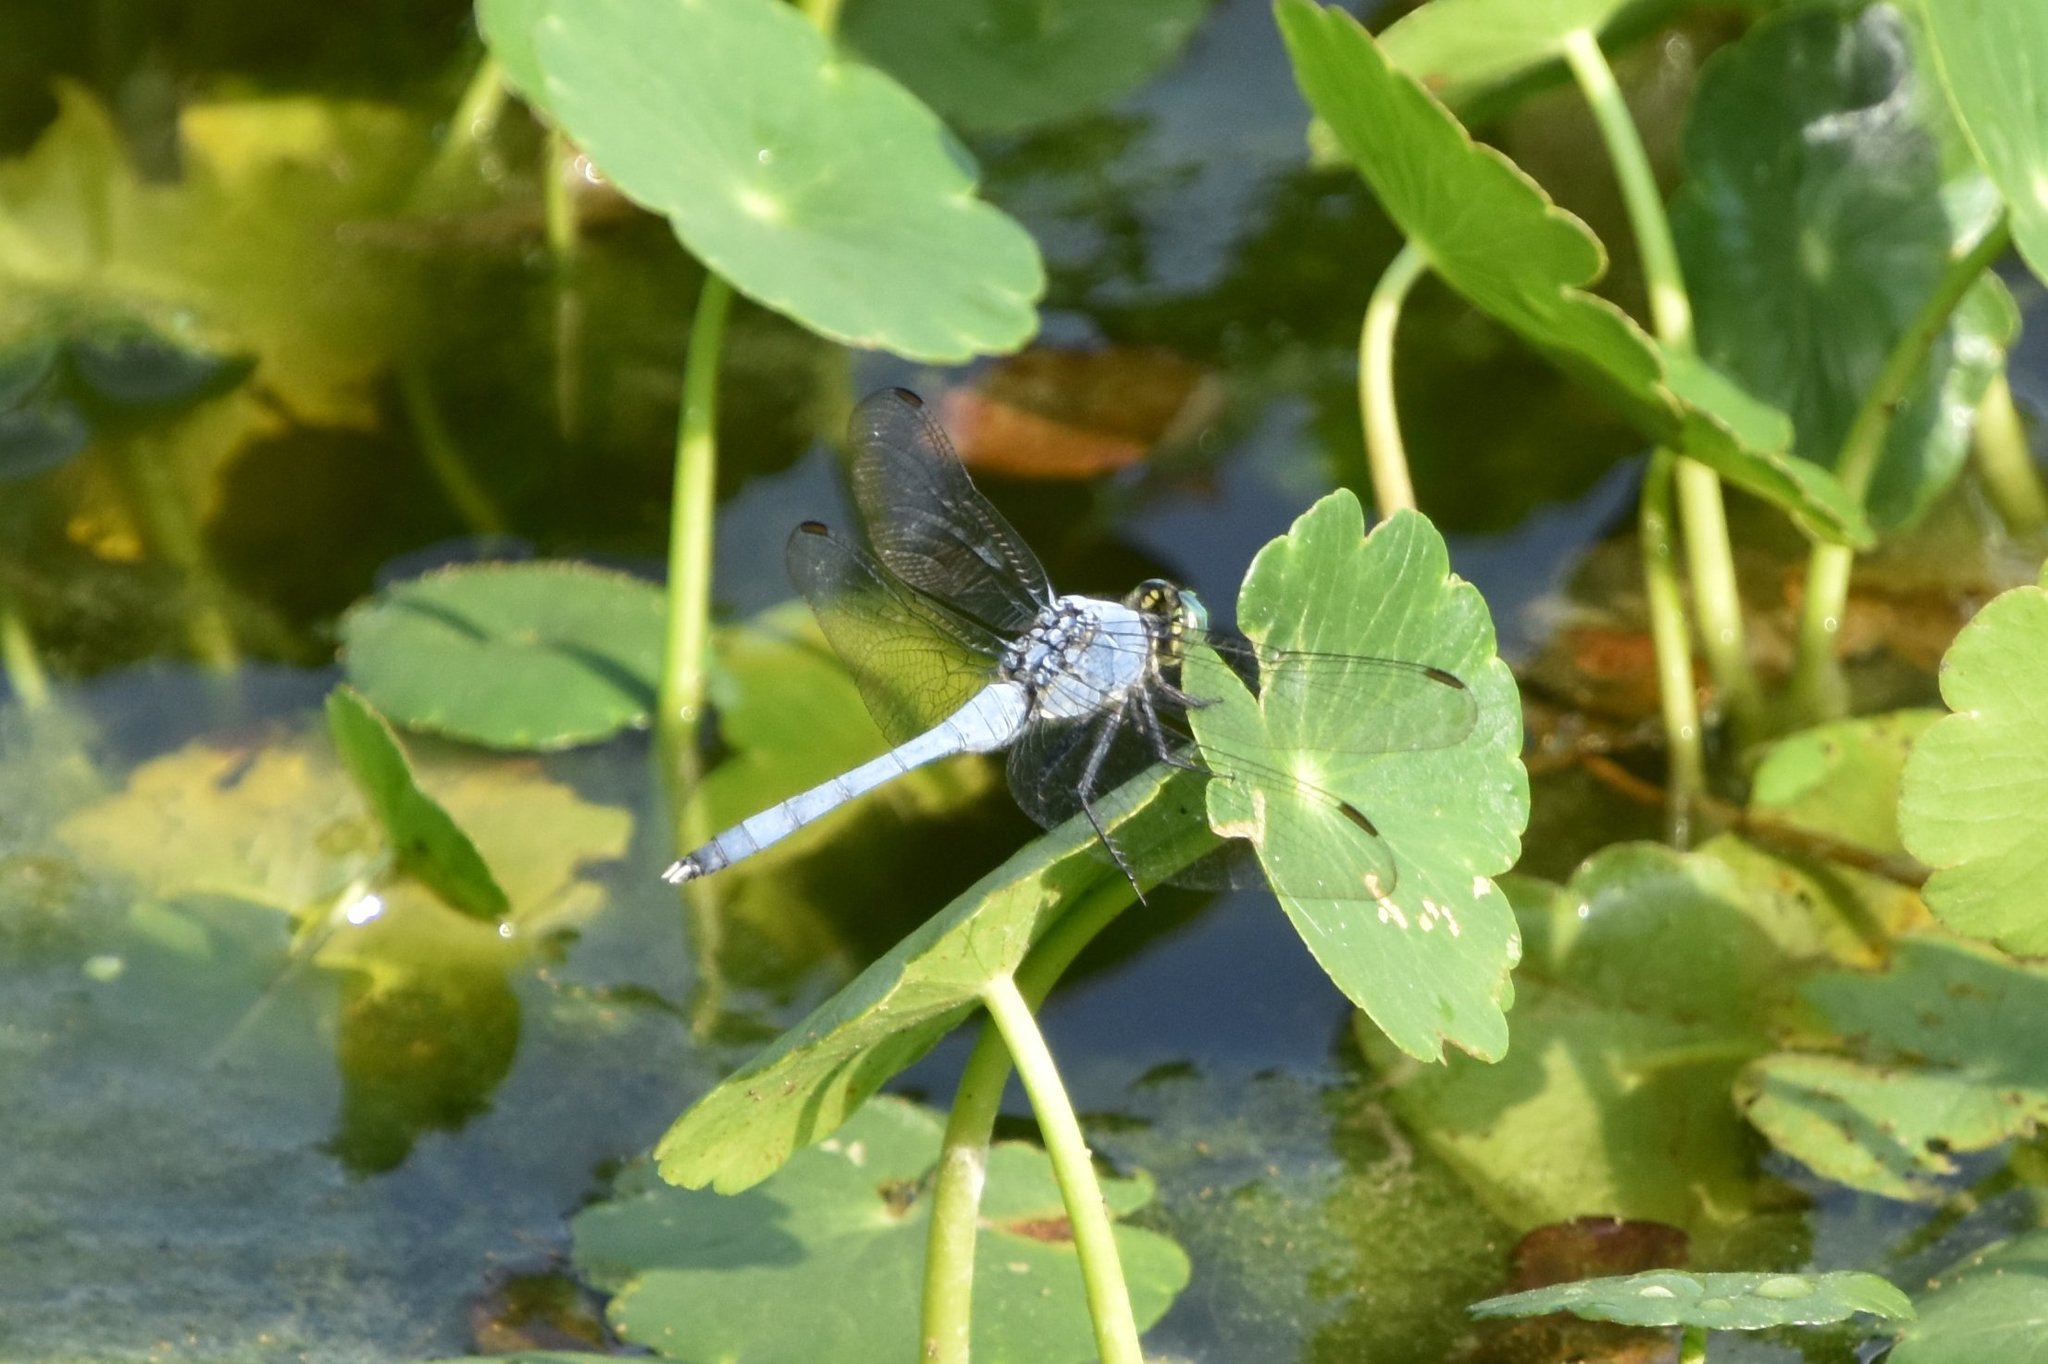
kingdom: Animalia
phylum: Arthropoda
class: Insecta
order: Odonata
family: Libellulidae
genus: Erythemis
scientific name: Erythemis simplicicollis
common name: Eastern pondhawk
